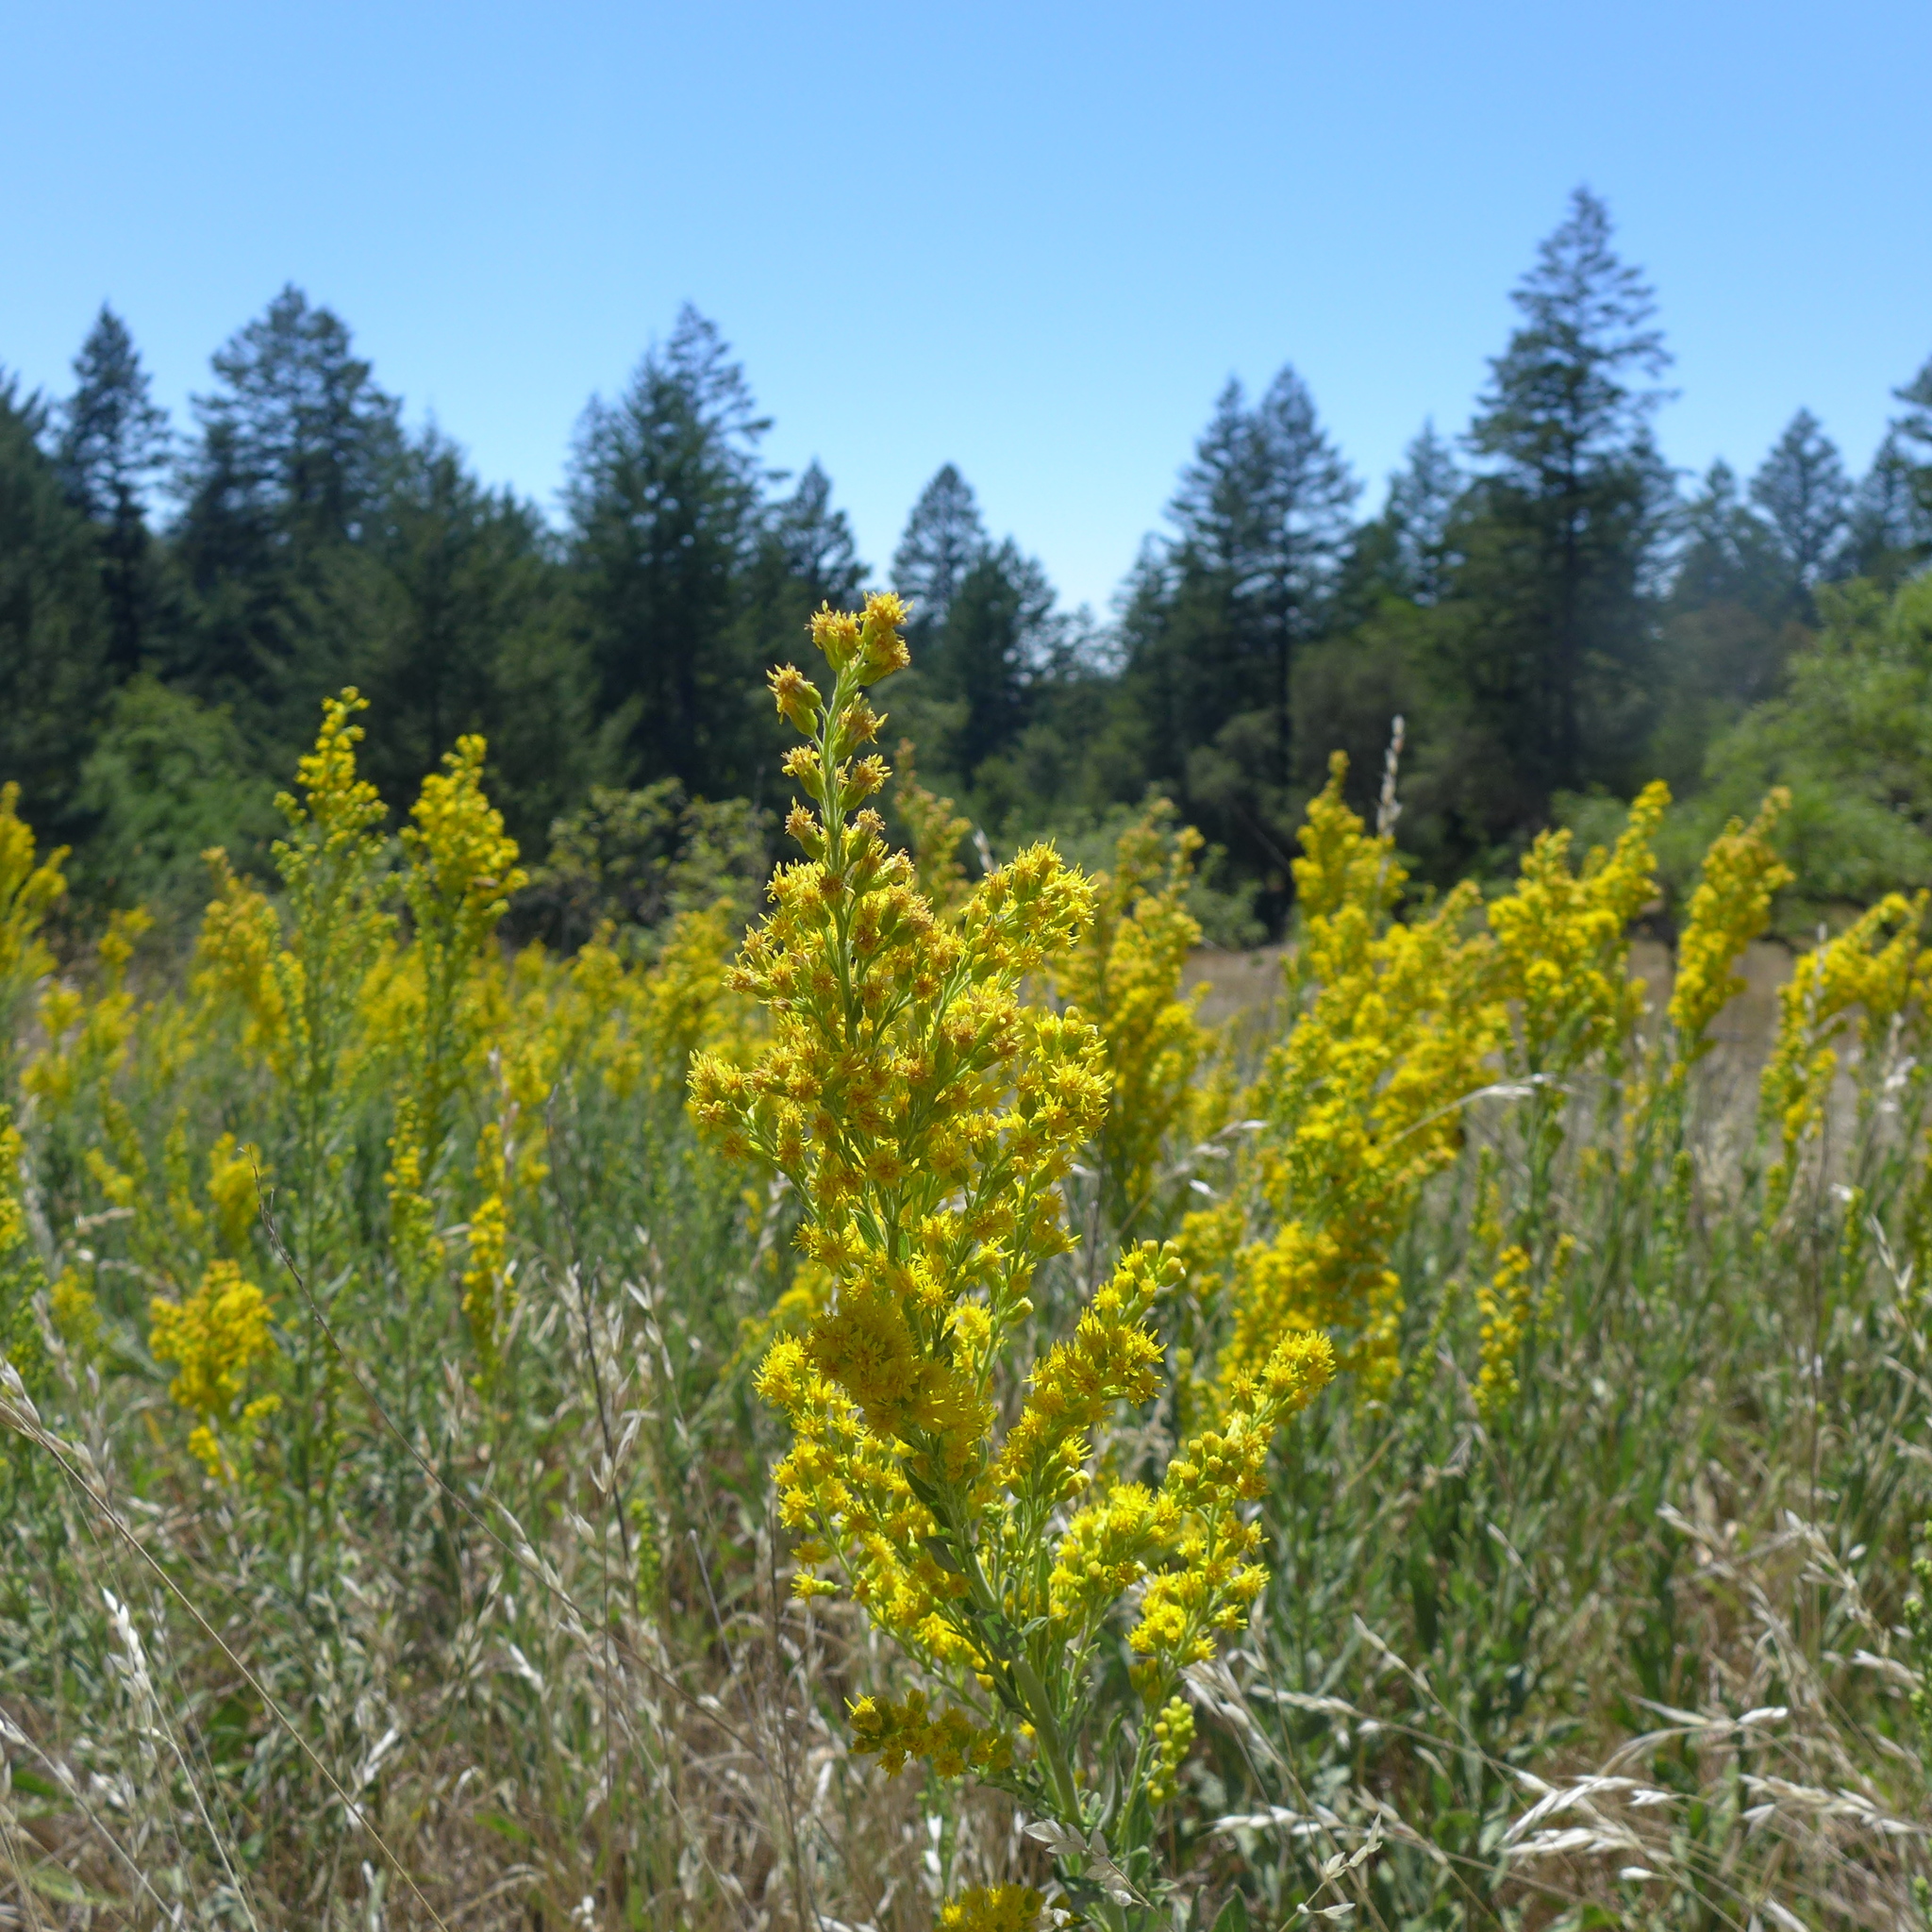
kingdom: Plantae
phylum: Tracheophyta
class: Magnoliopsida
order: Asterales
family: Asteraceae
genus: Euthamia
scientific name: Euthamia occidentalis
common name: Western goldentop
